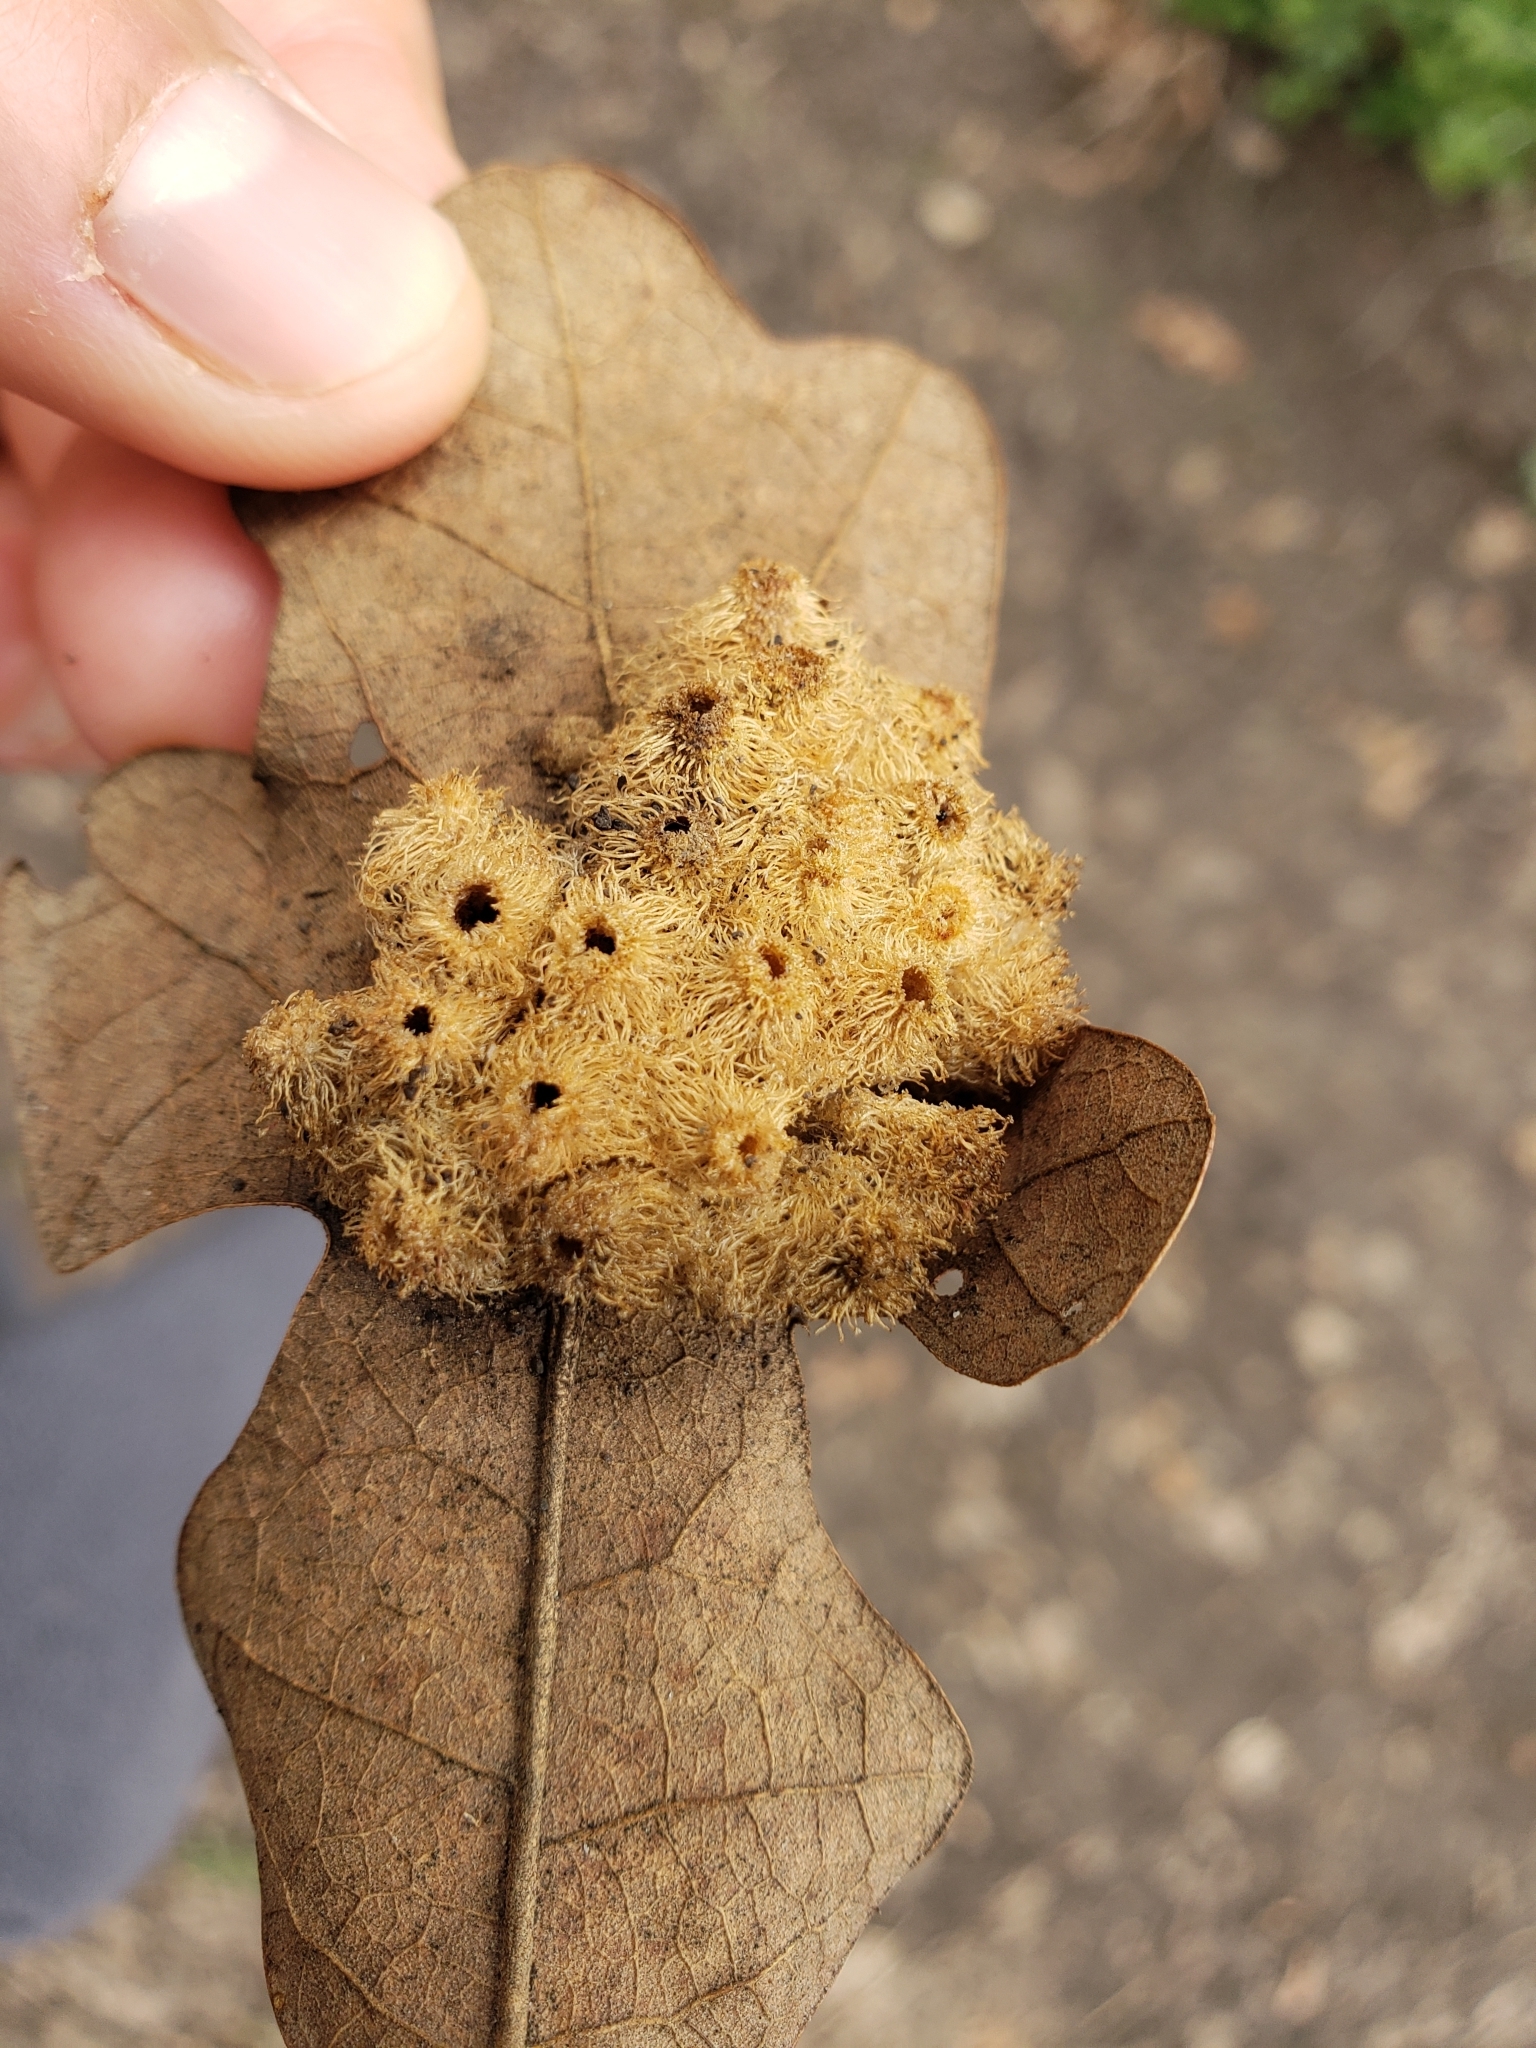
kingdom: Animalia
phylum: Arthropoda
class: Insecta
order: Hymenoptera
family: Cynipidae
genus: Andricus
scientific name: Andricus
